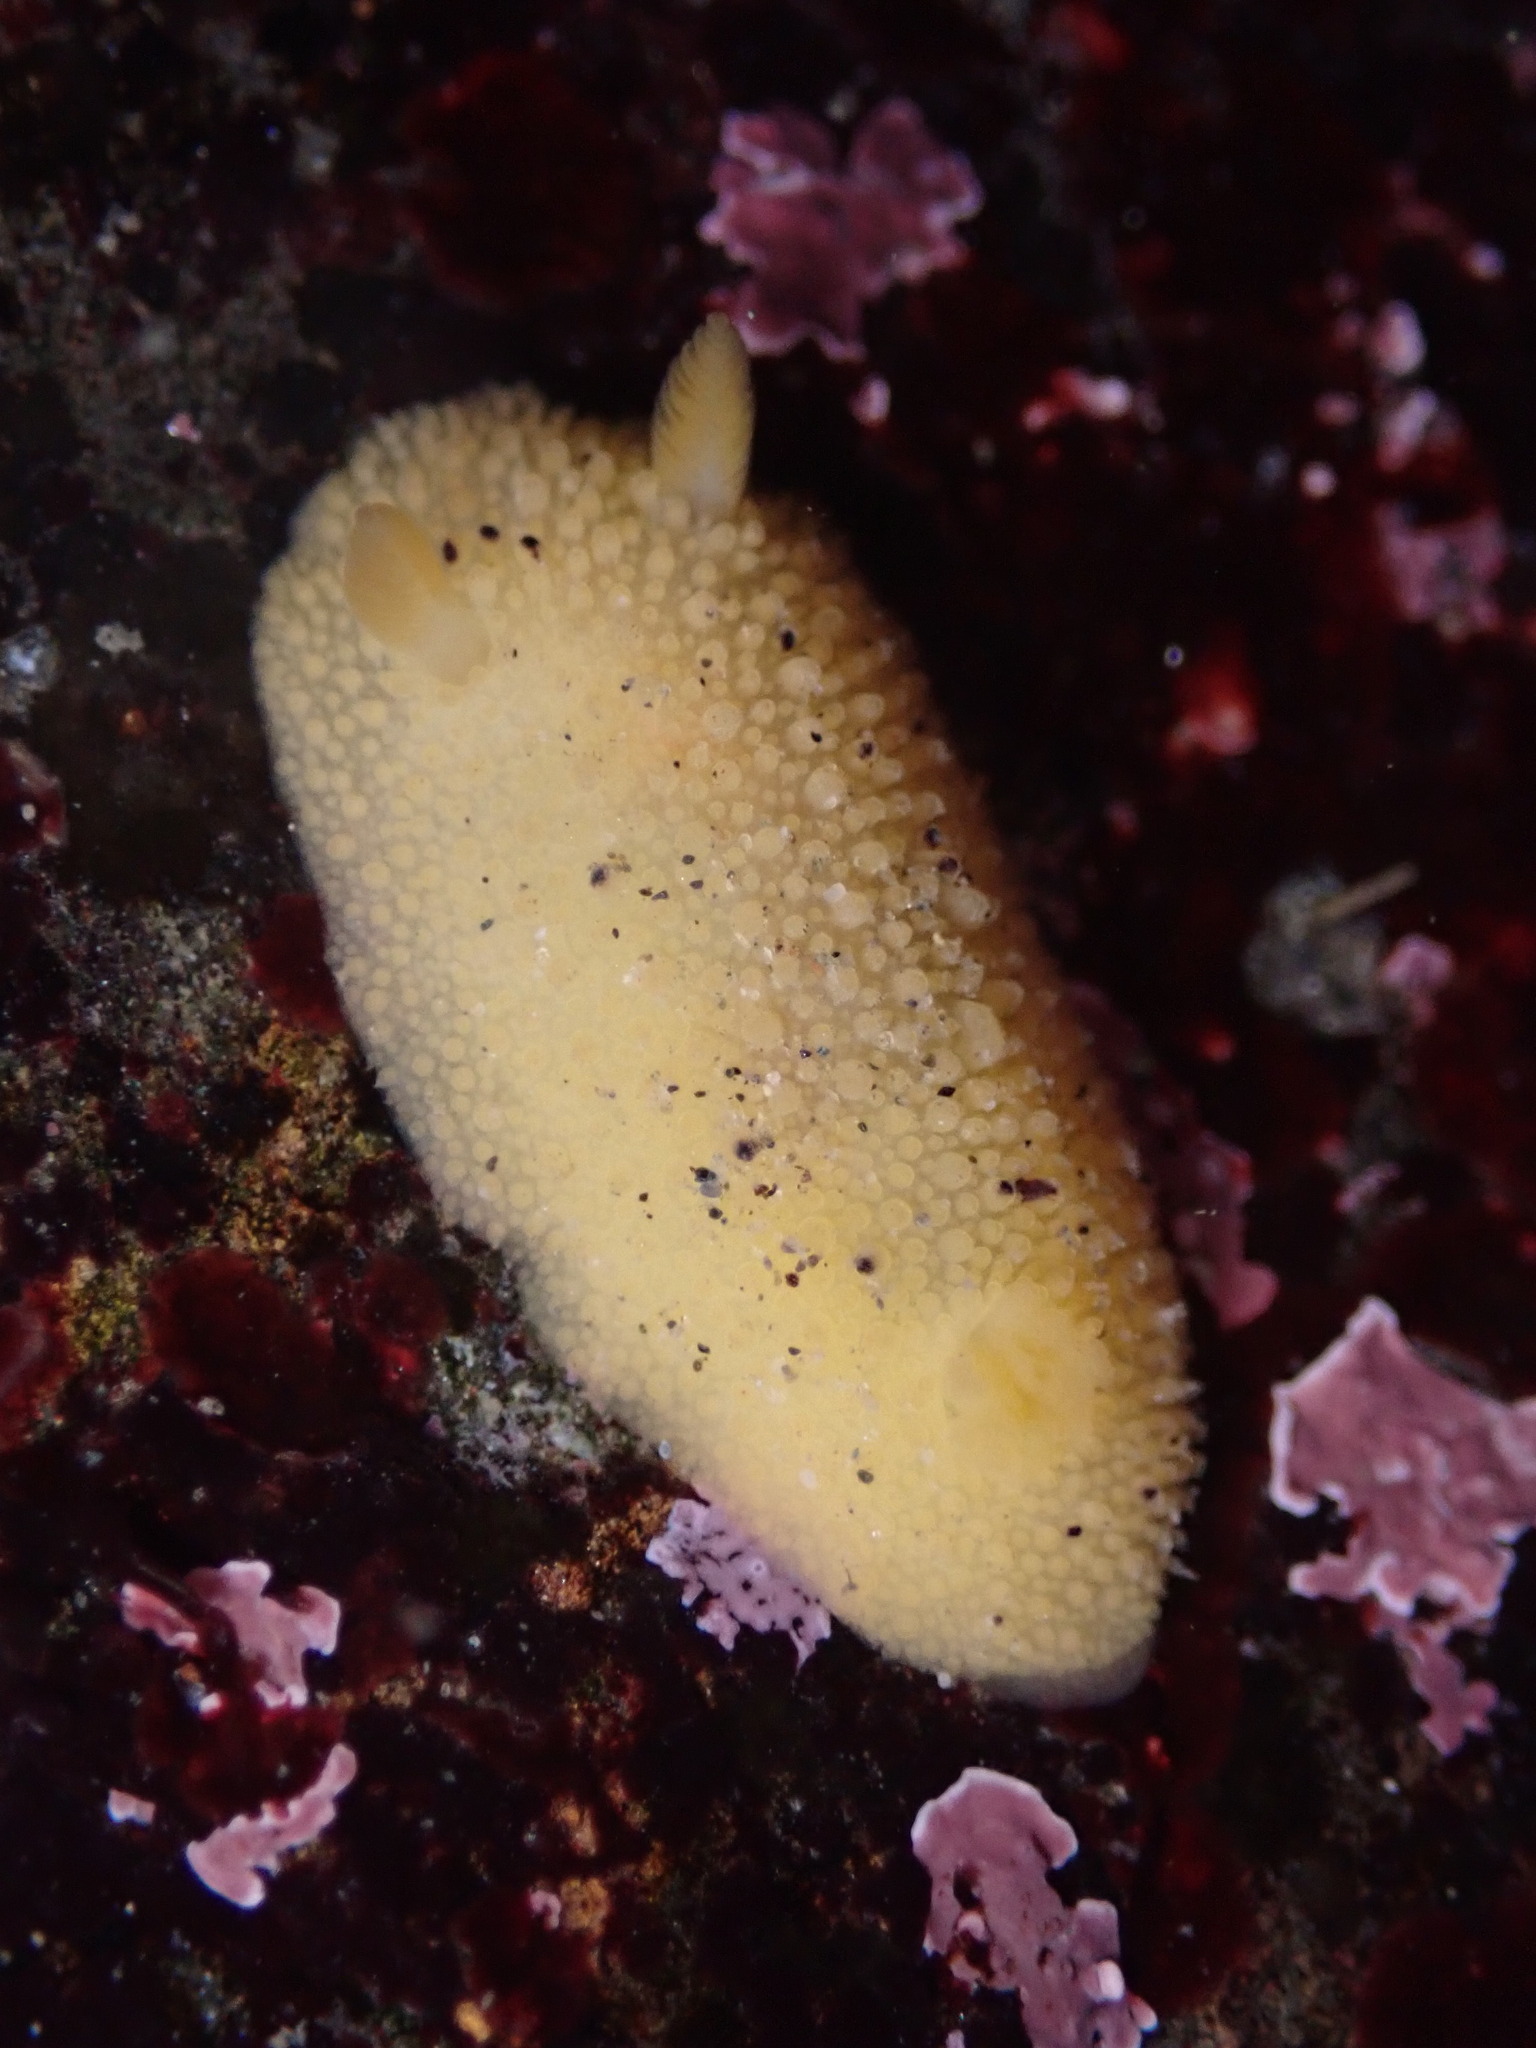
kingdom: Animalia
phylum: Mollusca
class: Gastropoda
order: Nudibranchia
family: Dorididae
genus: Doris
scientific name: Doris montereyensis
